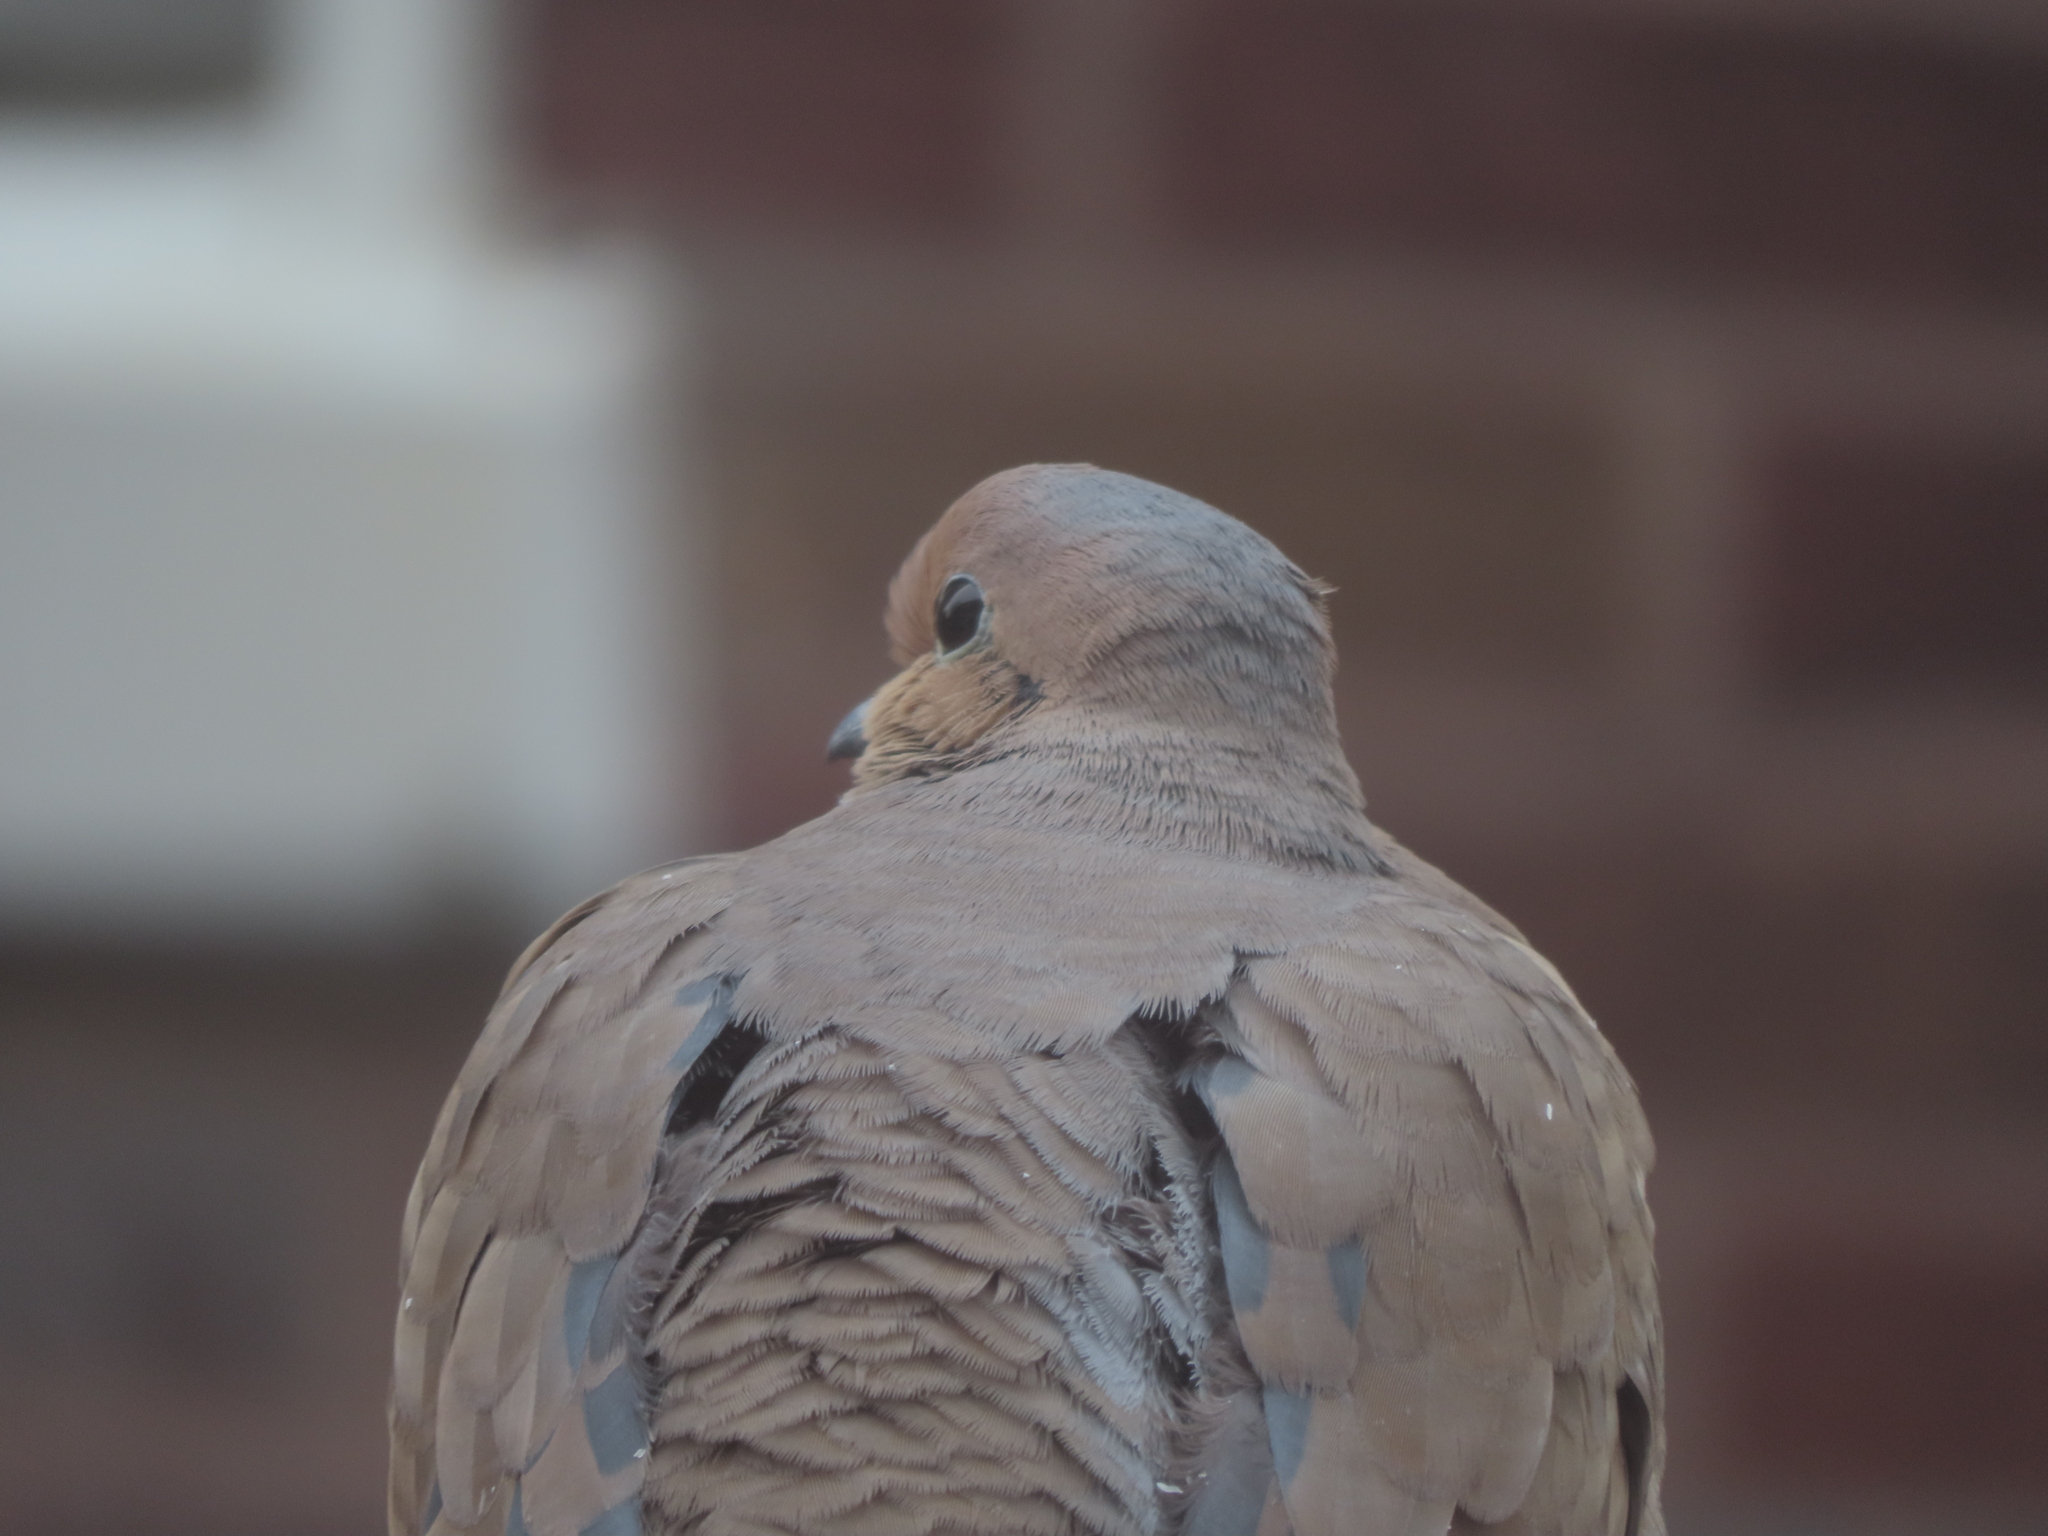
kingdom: Animalia
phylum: Chordata
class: Aves
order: Columbiformes
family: Columbidae
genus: Zenaida
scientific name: Zenaida macroura
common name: Mourning dove
